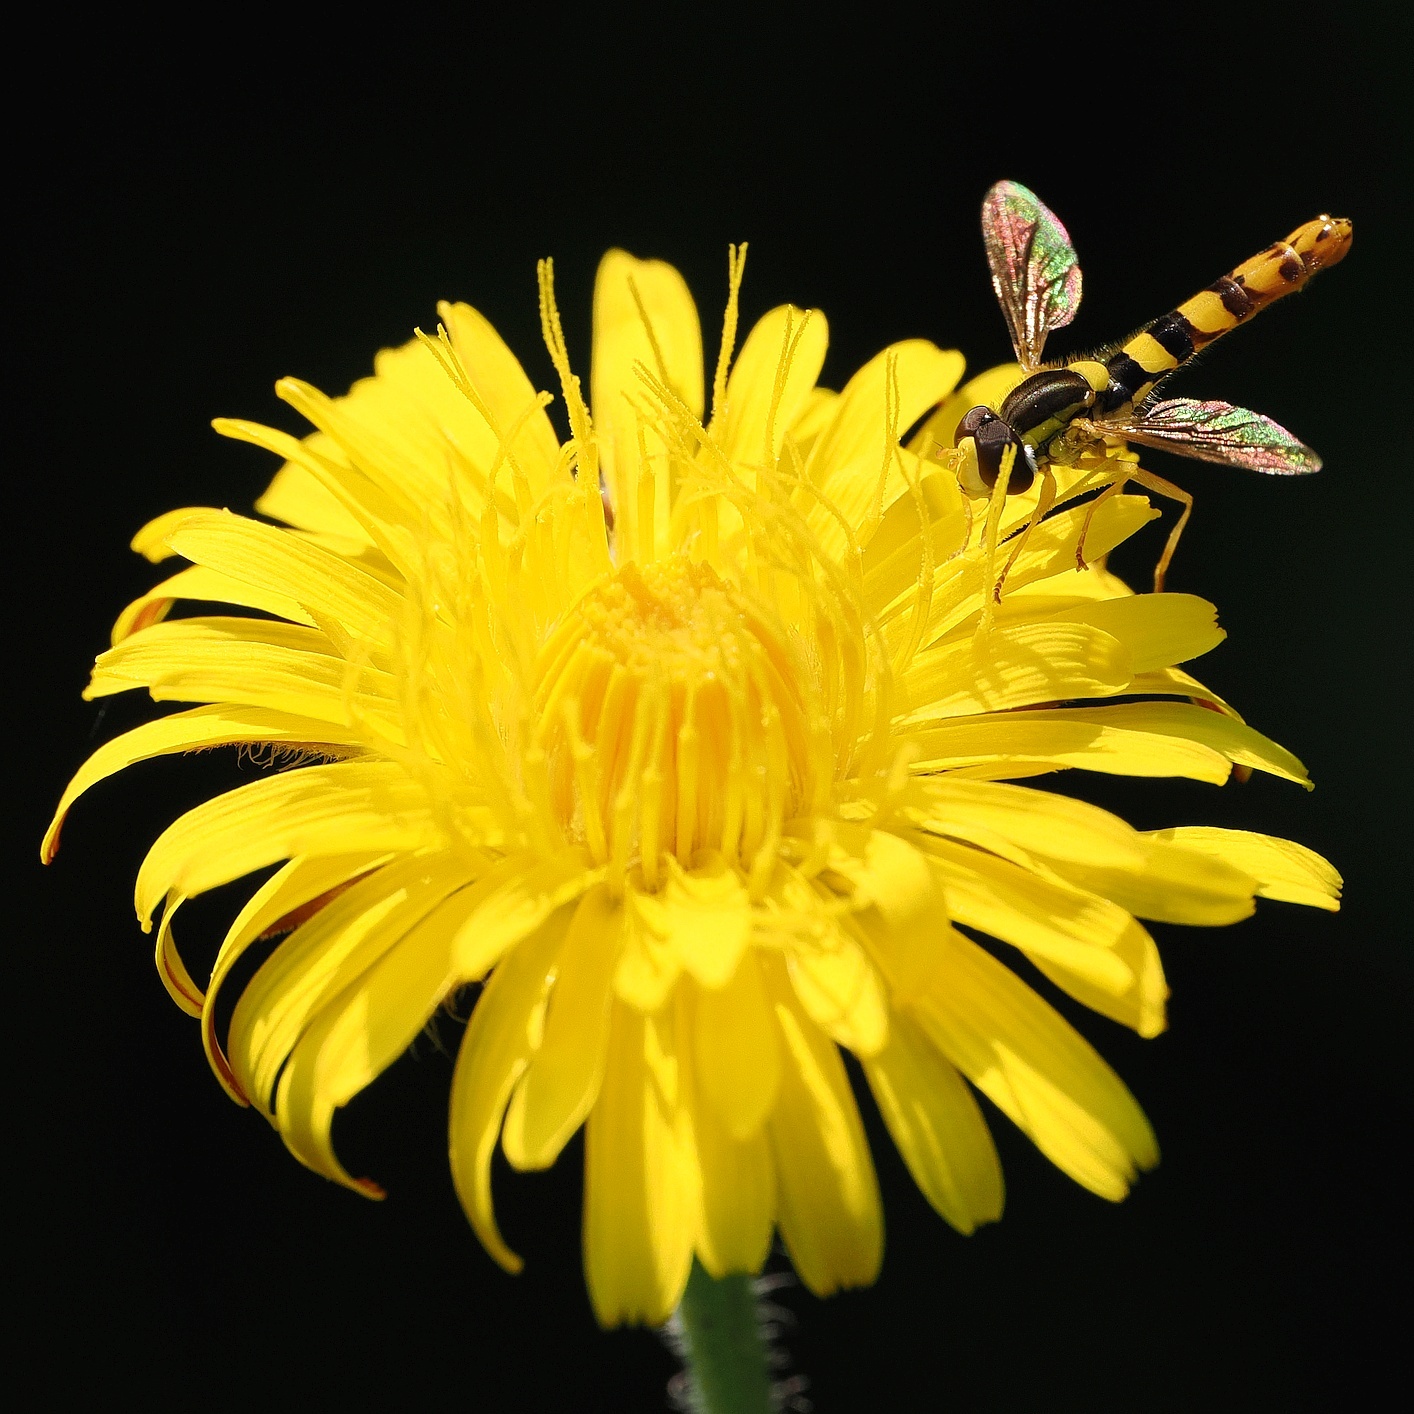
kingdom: Animalia
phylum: Arthropoda
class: Insecta
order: Diptera
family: Syrphidae
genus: Sphaerophoria
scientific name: Sphaerophoria scripta
